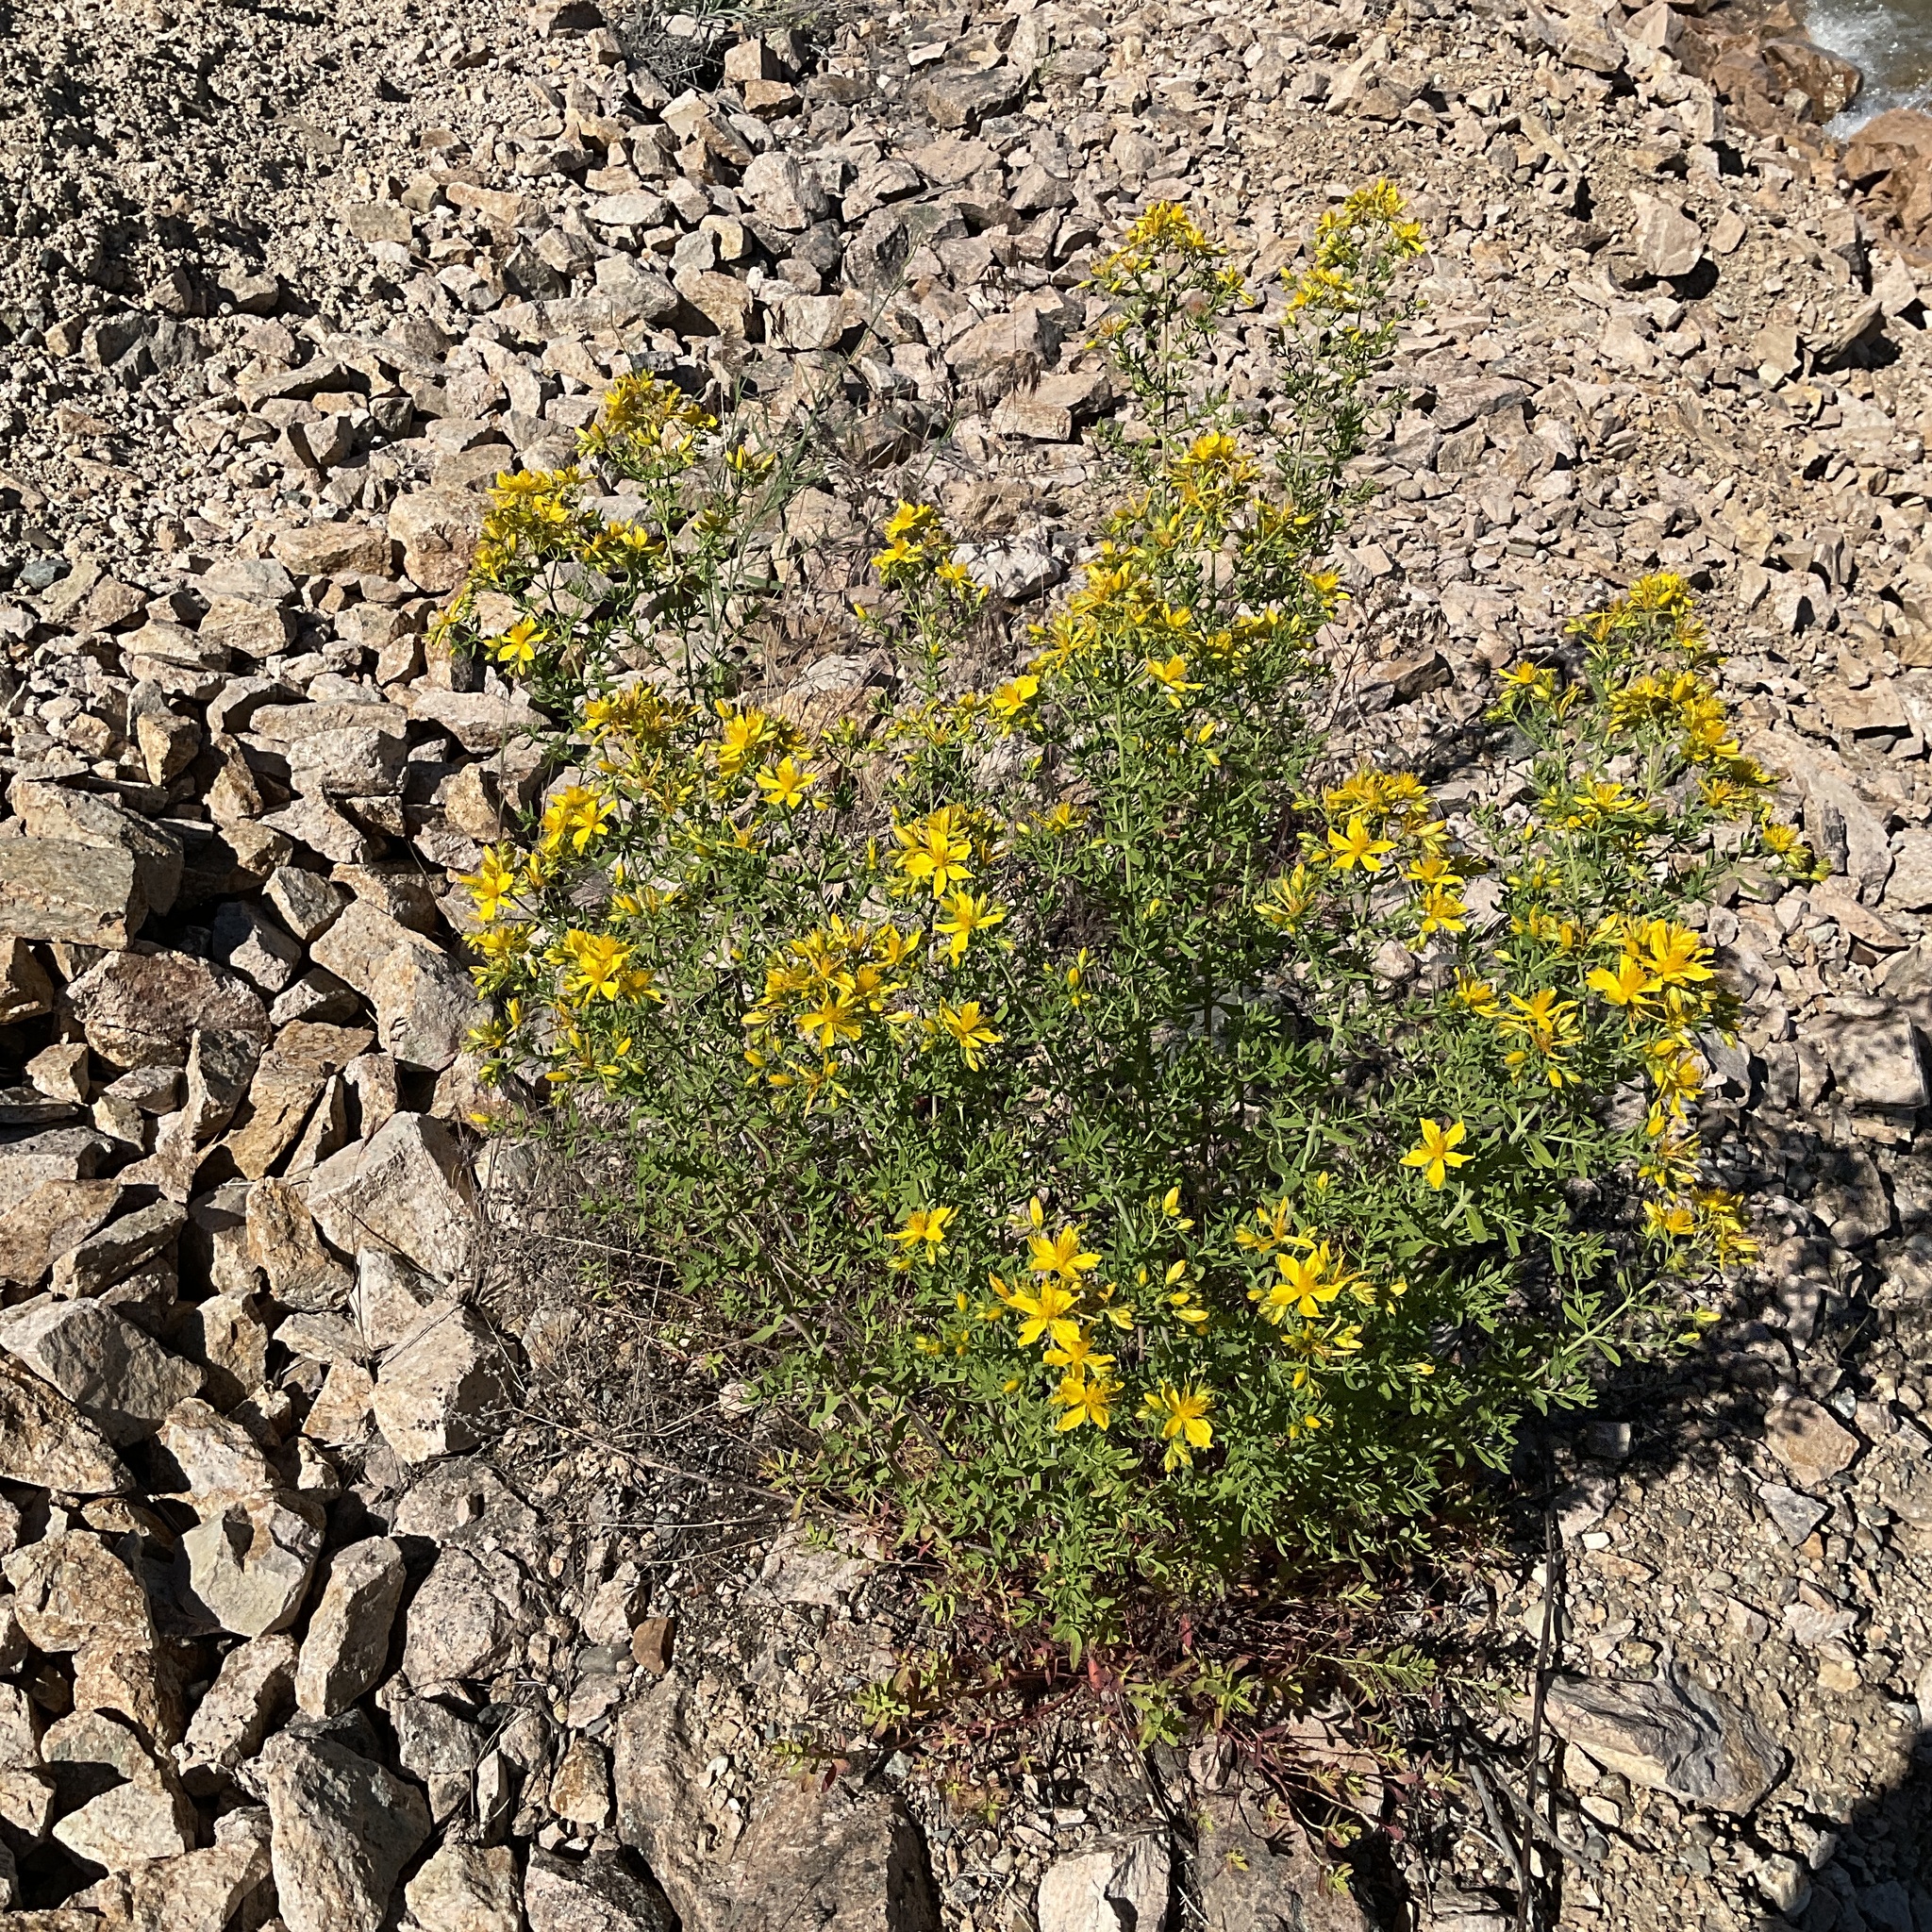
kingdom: Plantae
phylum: Tracheophyta
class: Magnoliopsida
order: Malpighiales
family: Hypericaceae
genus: Hypericum
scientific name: Hypericum perforatum
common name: Common st. johnswort
